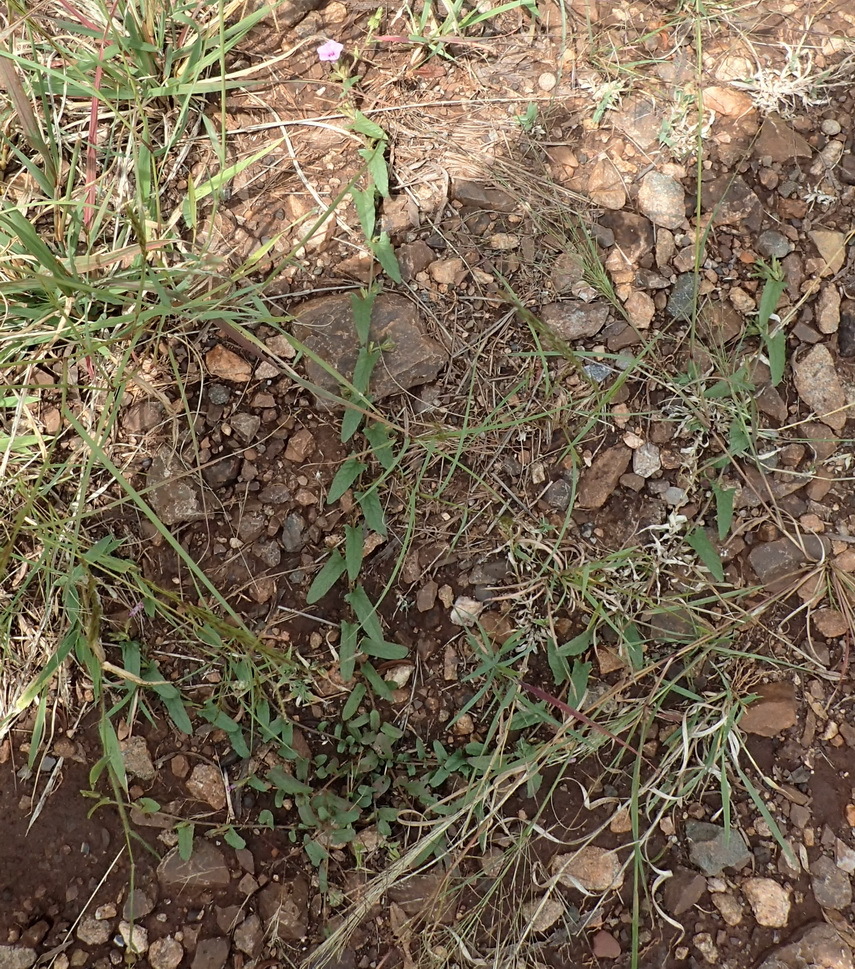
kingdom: Plantae
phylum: Tracheophyta
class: Magnoliopsida
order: Solanales
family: Convolvulaceae
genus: Ipomoea
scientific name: Ipomoea gracilisepala
